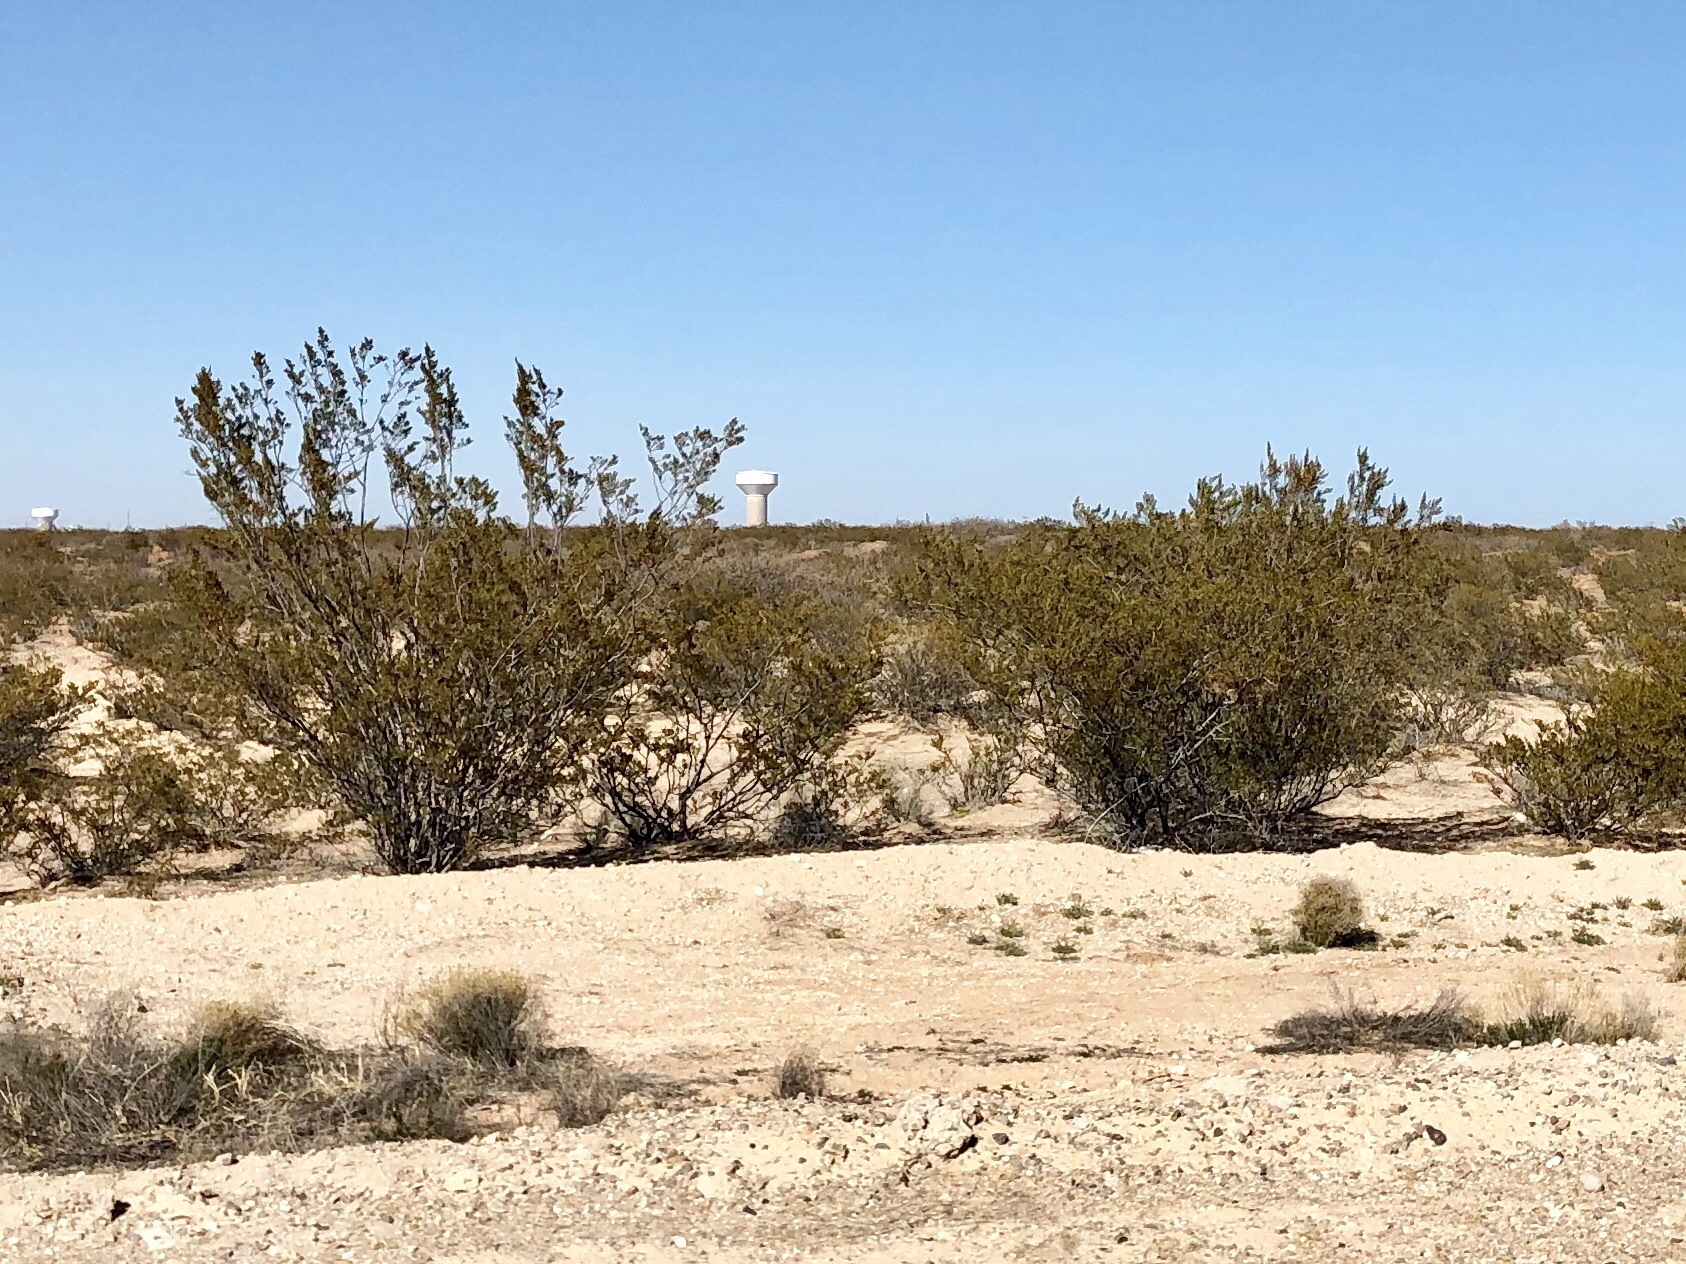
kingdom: Plantae
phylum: Tracheophyta
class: Magnoliopsida
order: Zygophyllales
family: Zygophyllaceae
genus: Larrea
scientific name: Larrea tridentata
